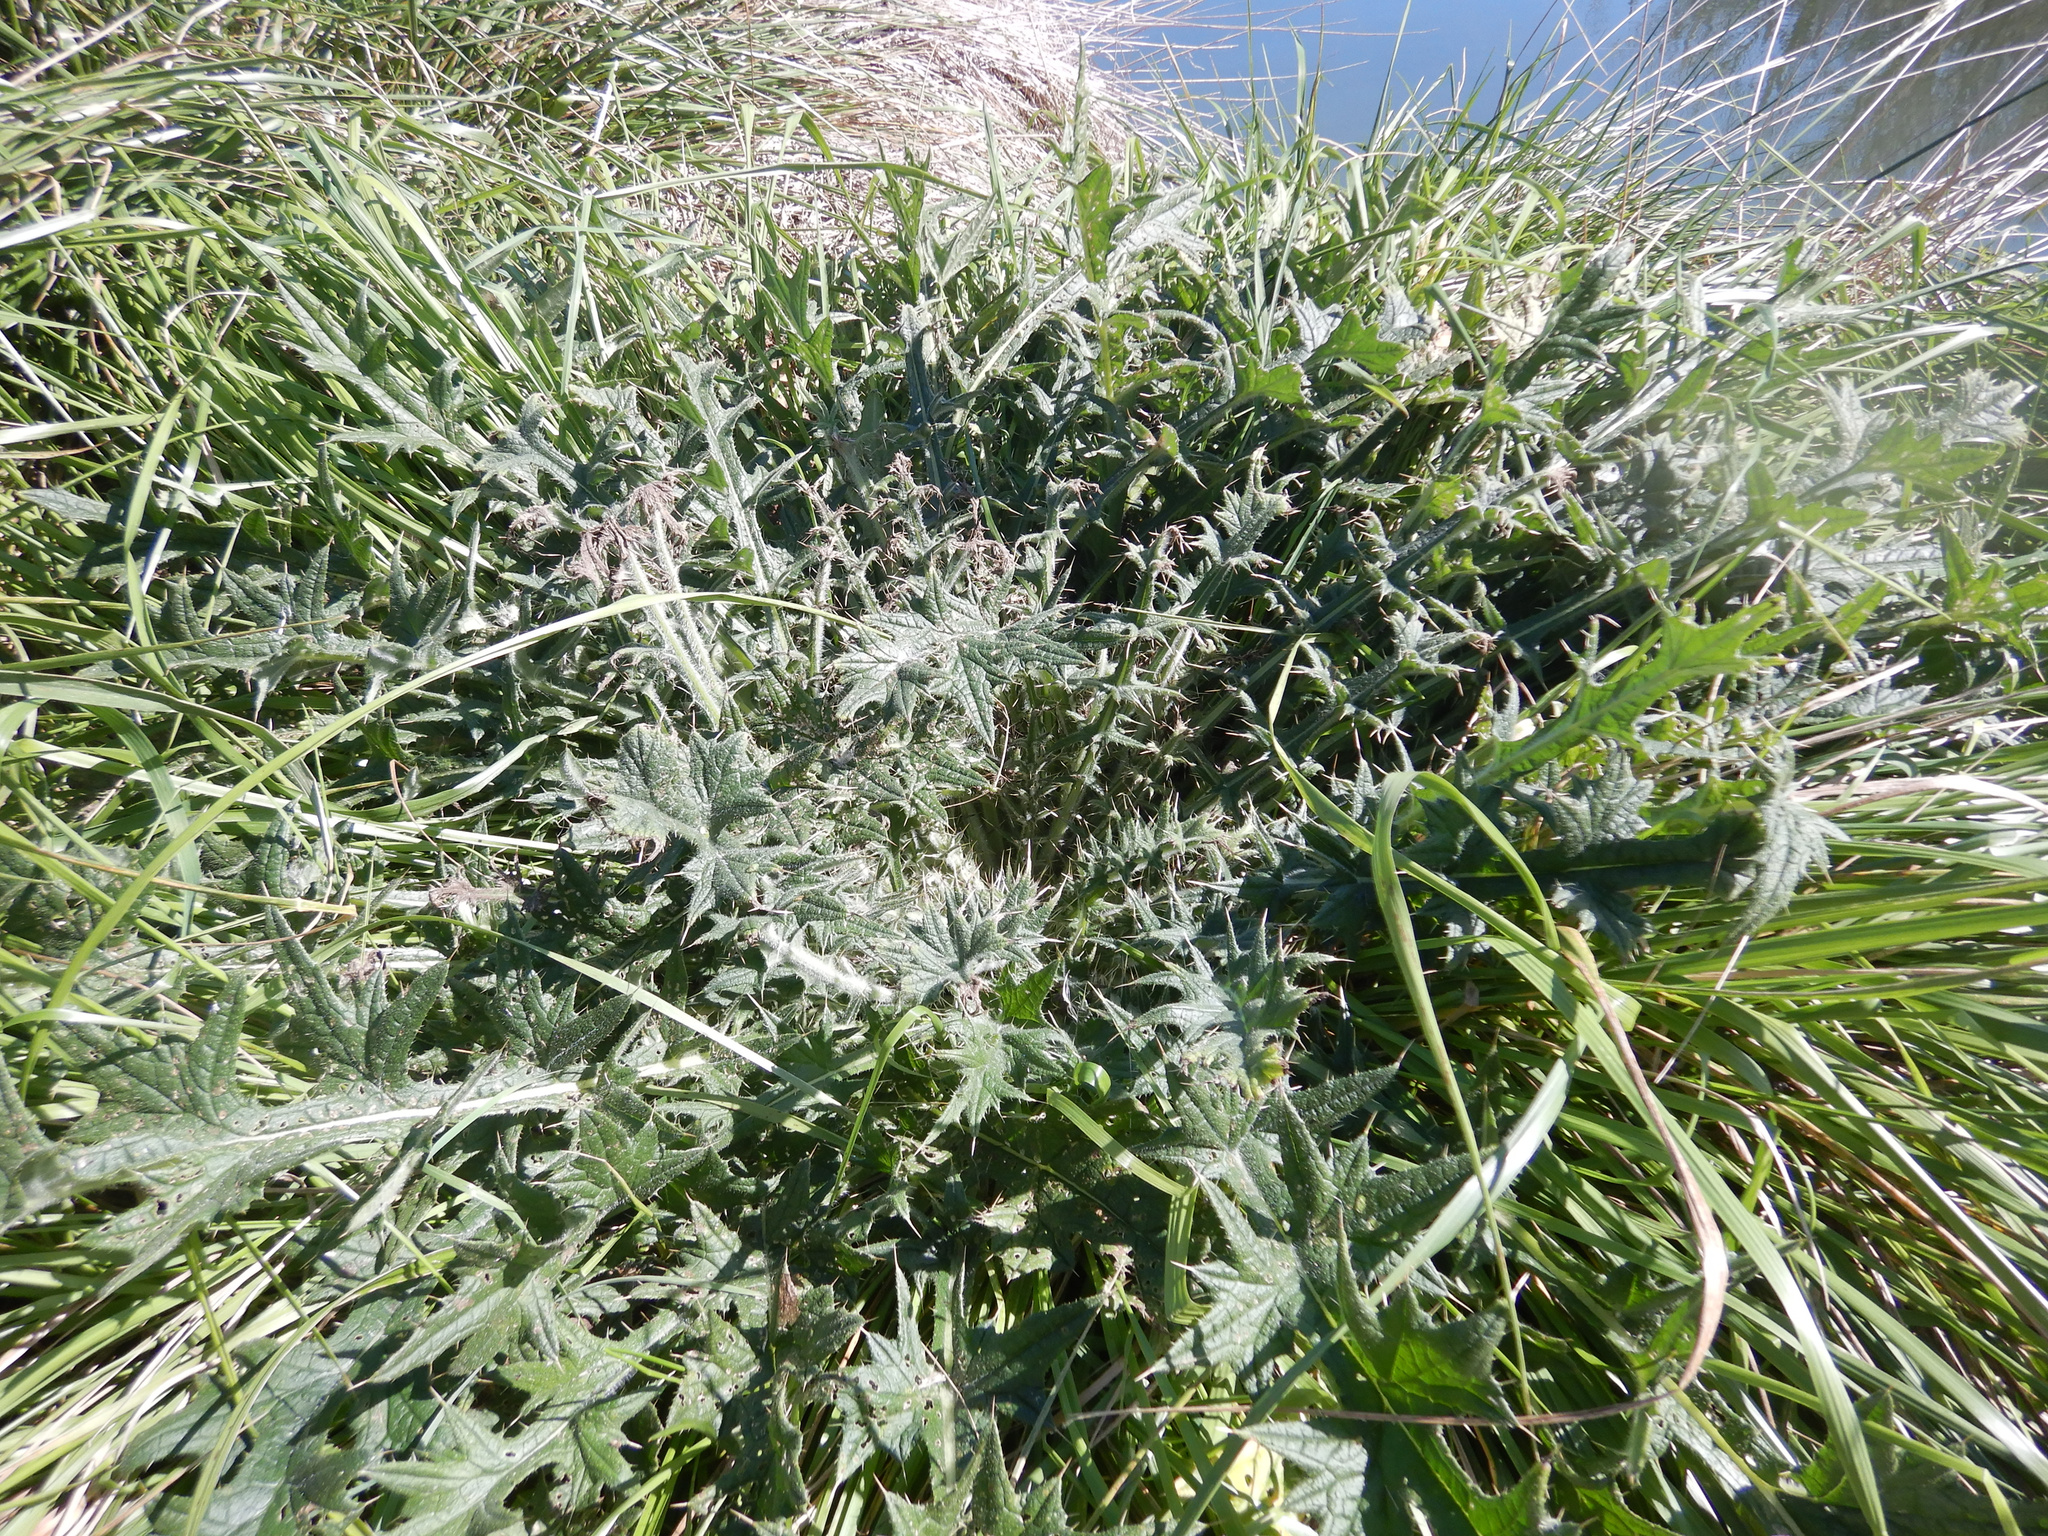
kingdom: Plantae
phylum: Tracheophyta
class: Magnoliopsida
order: Asterales
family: Asteraceae
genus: Cirsium
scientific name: Cirsium vulgare
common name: Bull thistle
